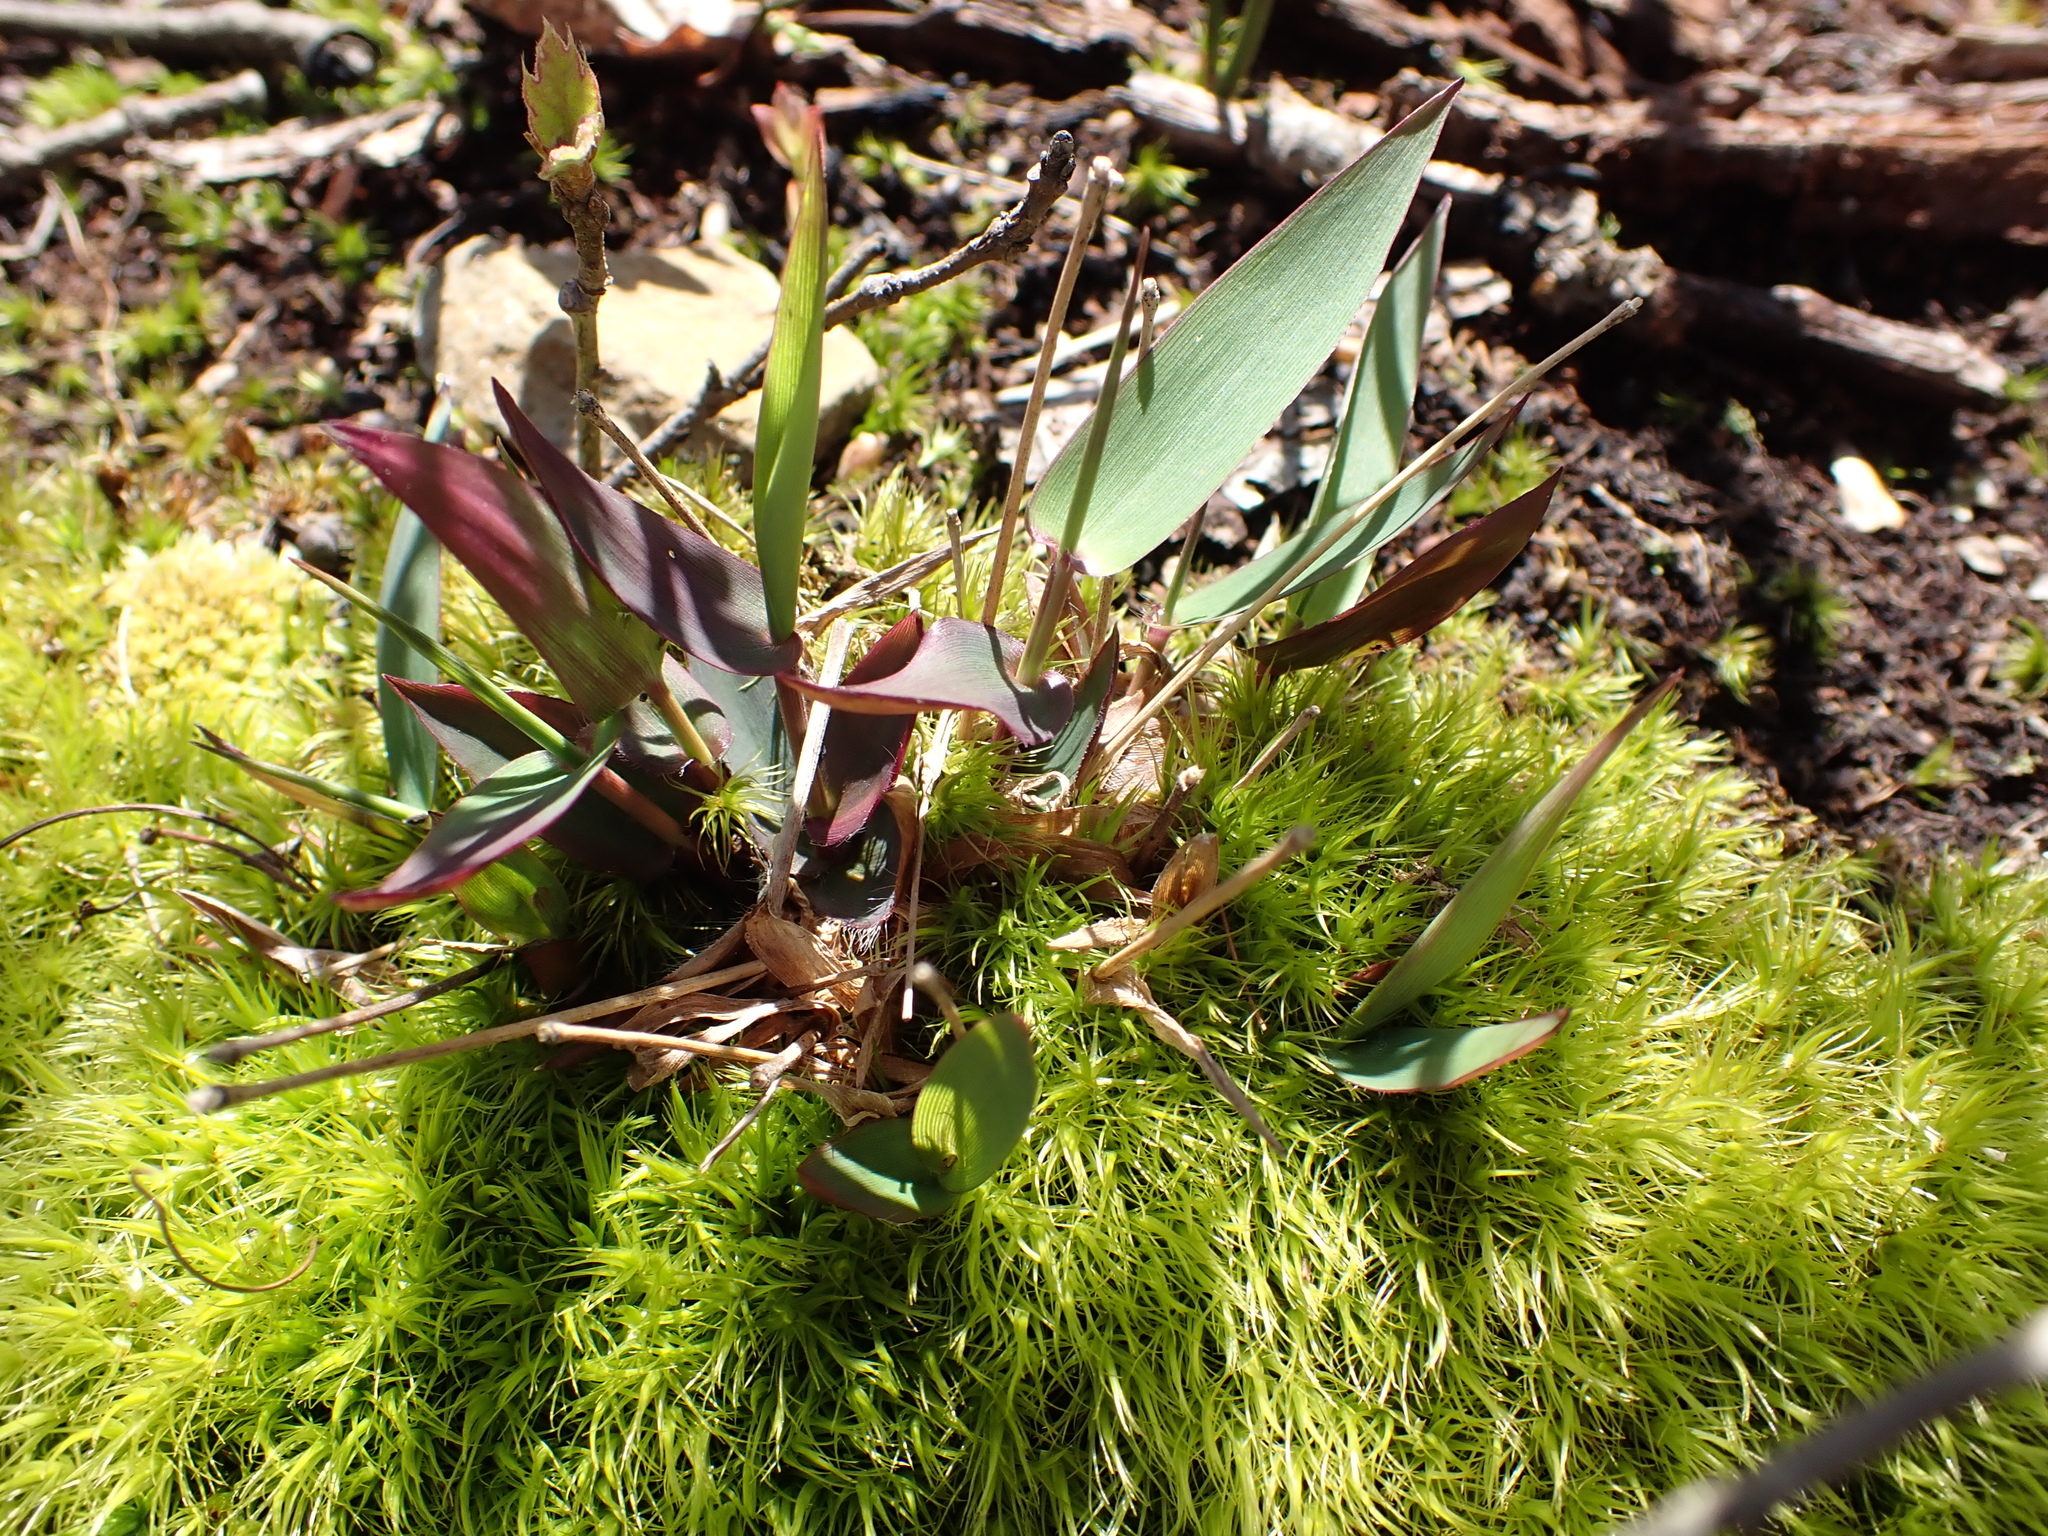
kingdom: Plantae
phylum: Tracheophyta
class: Liliopsida
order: Poales
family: Poaceae
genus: Dichanthelium
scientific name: Dichanthelium
